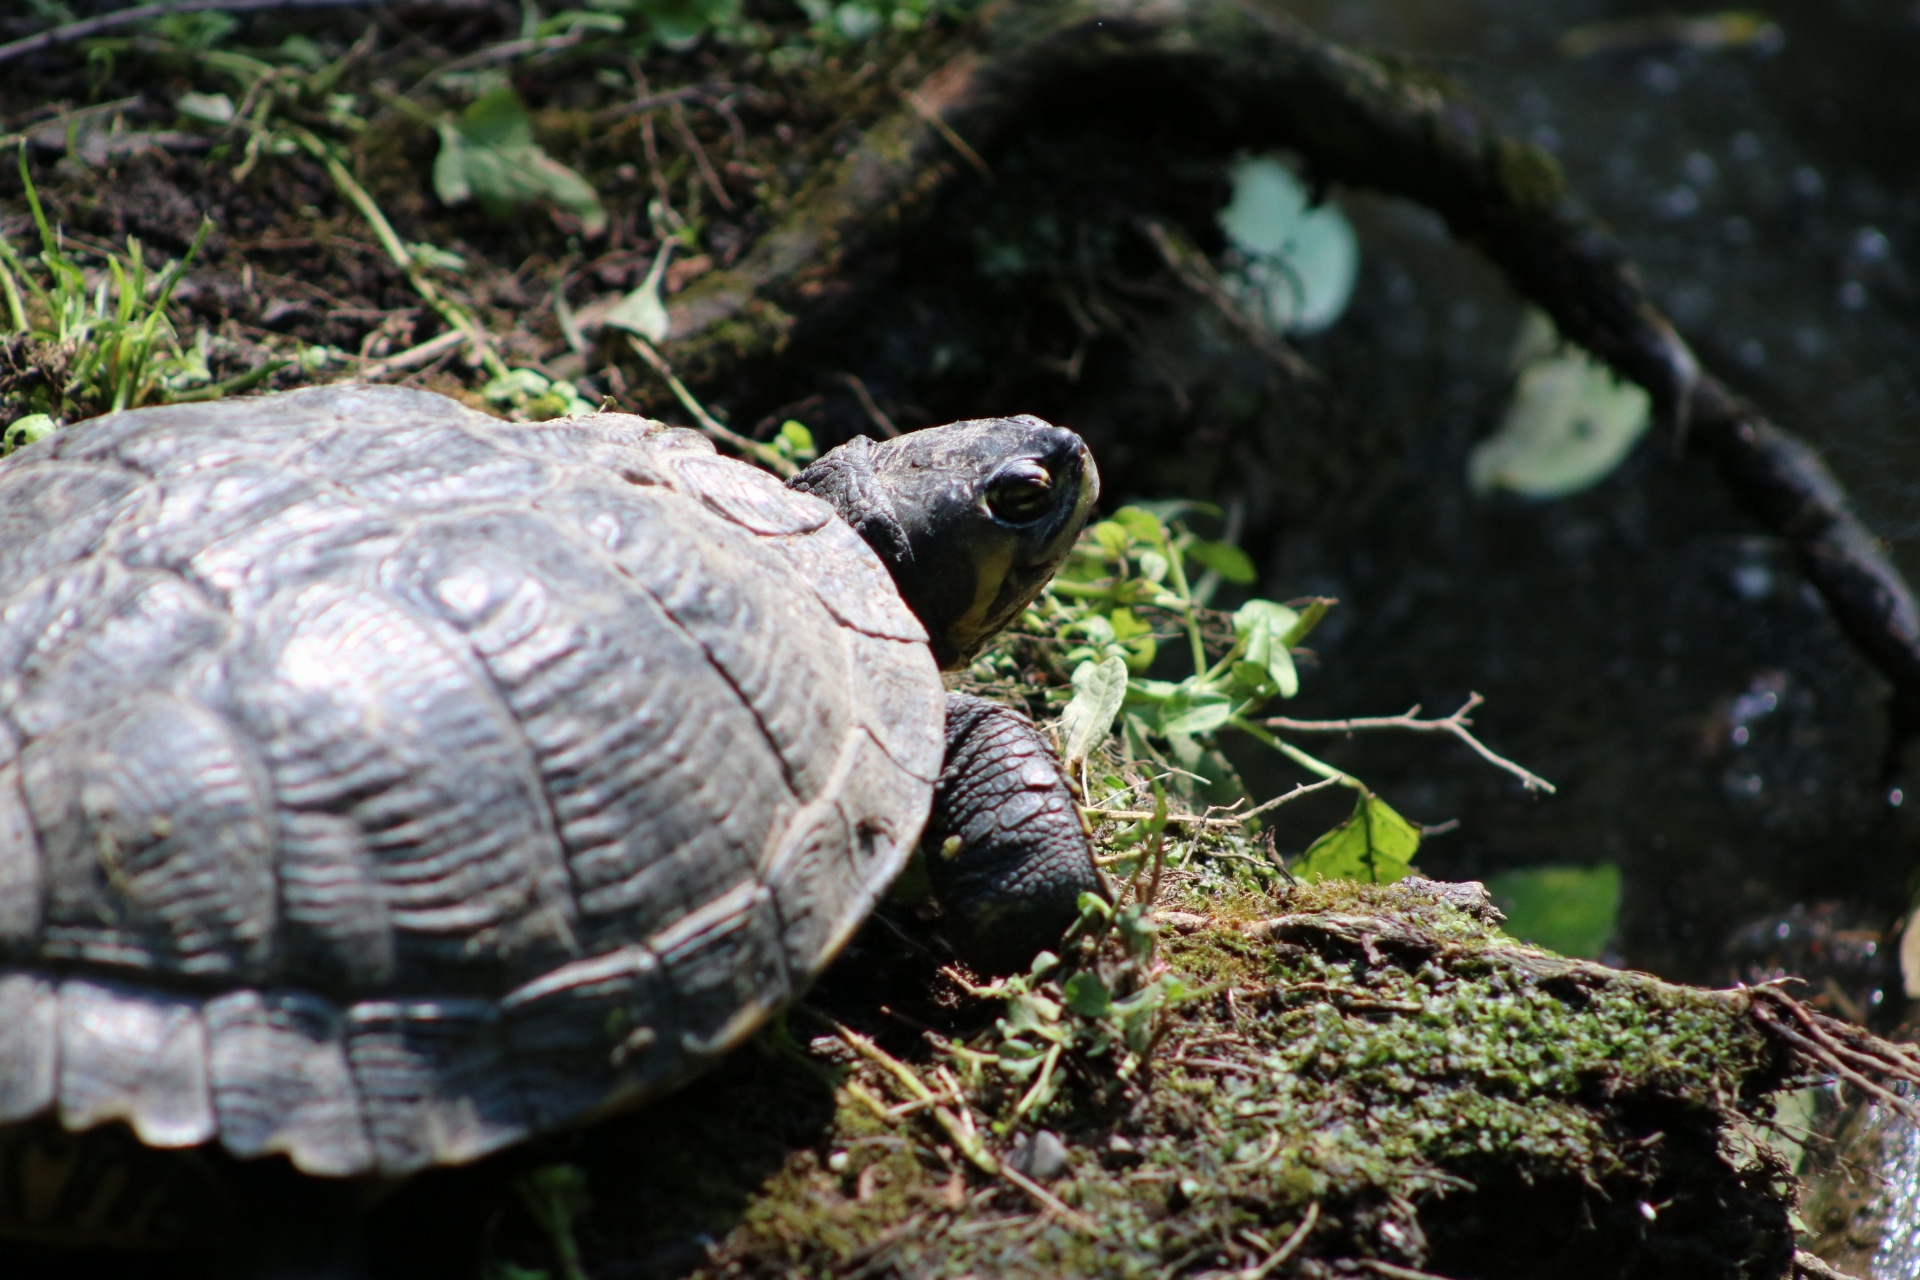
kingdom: Animalia
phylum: Chordata
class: Testudines
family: Emydidae
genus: Trachemys
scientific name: Trachemys scripta
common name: Slider
